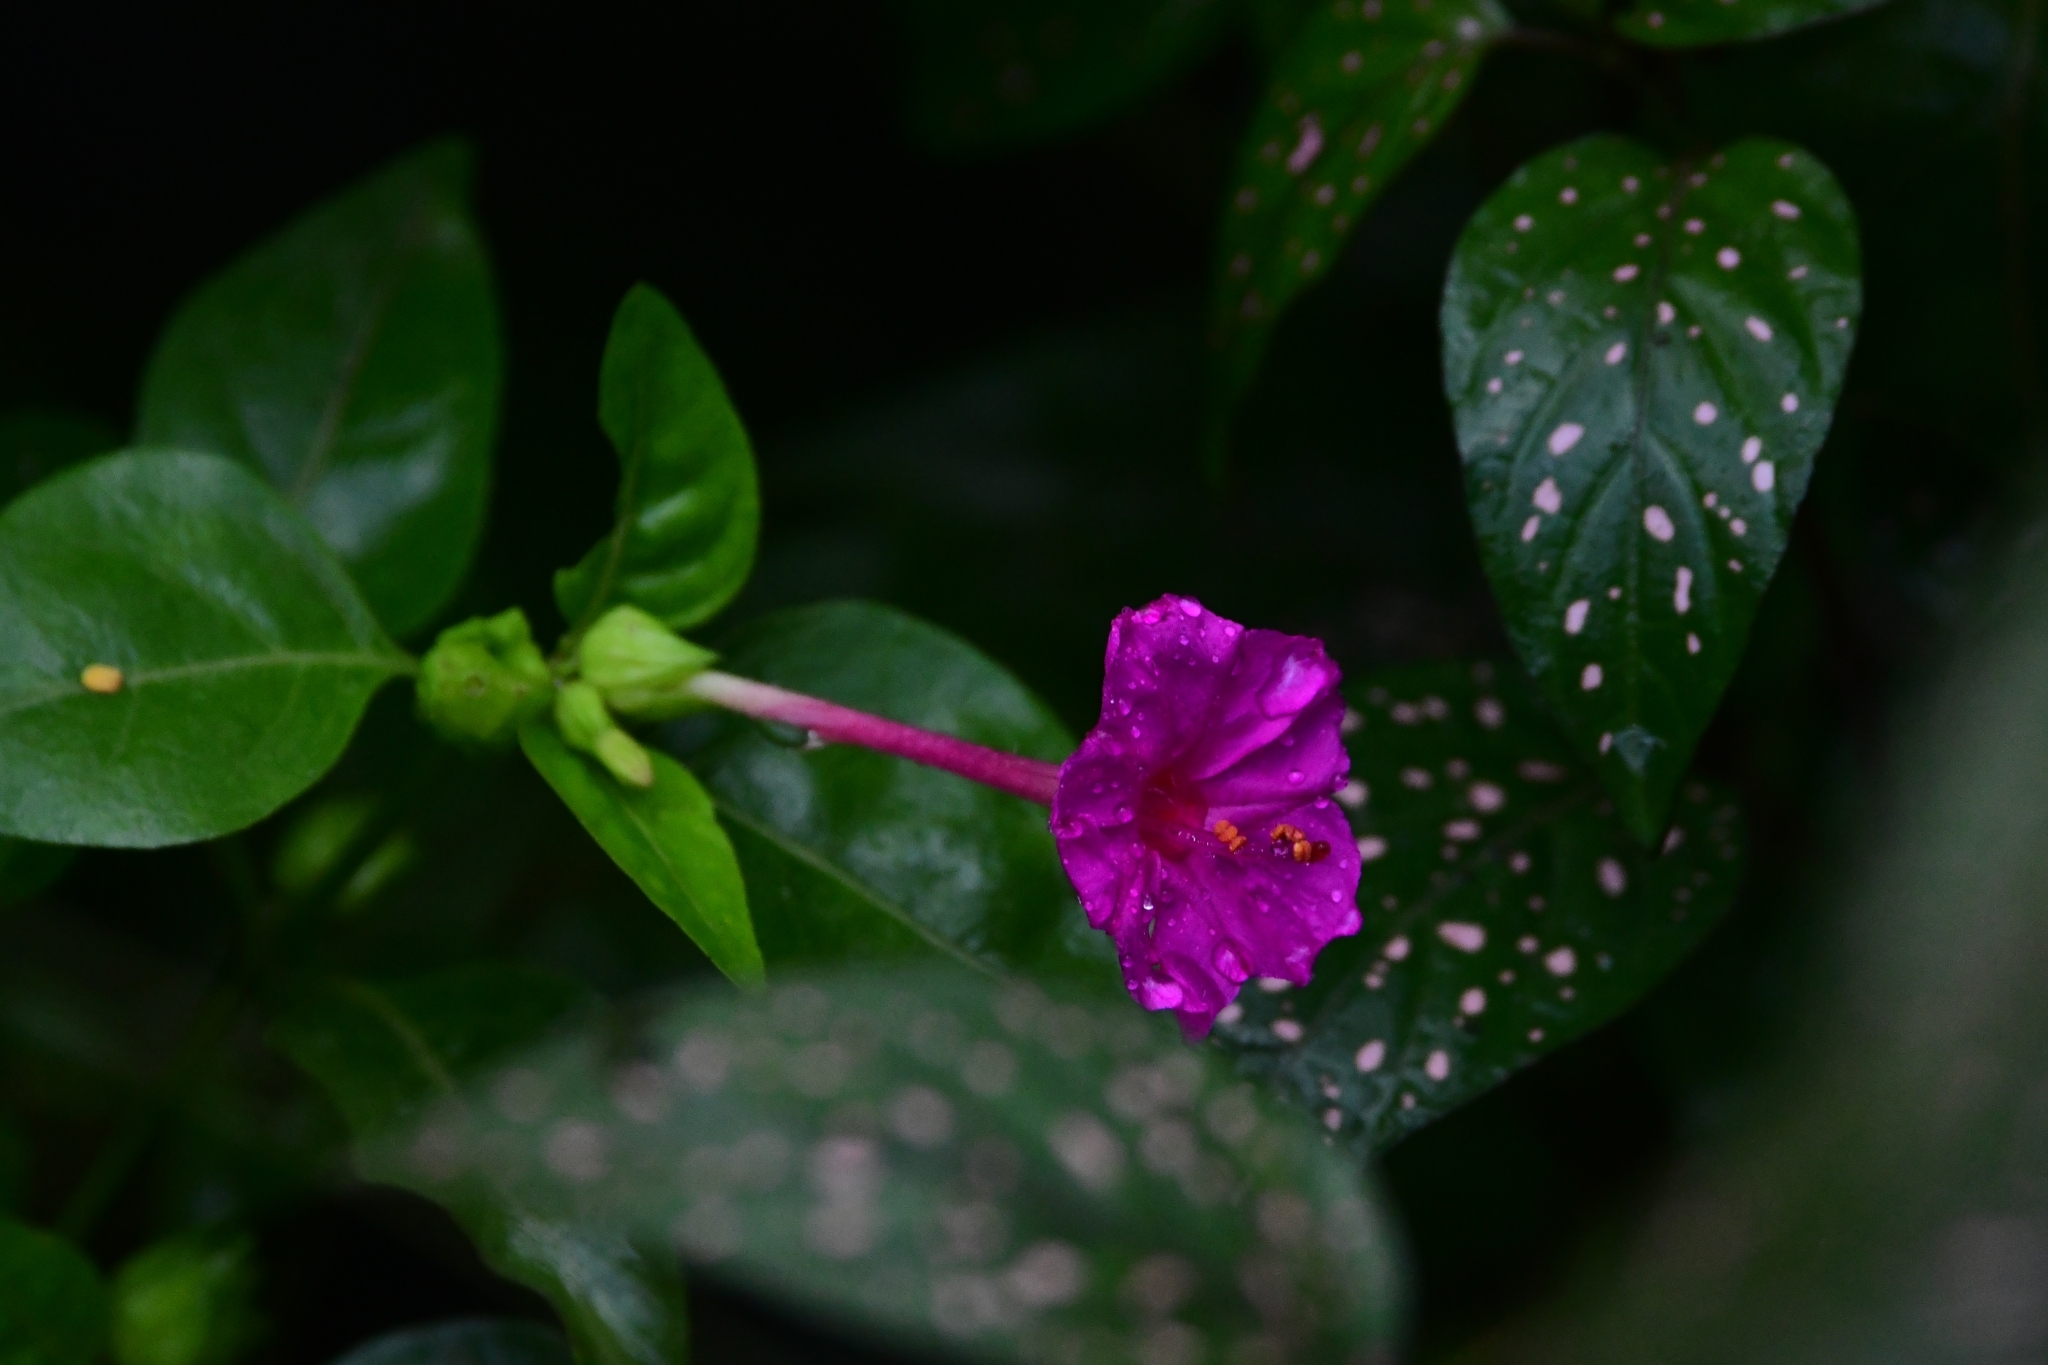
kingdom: Plantae
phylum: Tracheophyta
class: Magnoliopsida
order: Caryophyllales
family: Nyctaginaceae
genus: Mirabilis
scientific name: Mirabilis jalapa
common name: Marvel-of-peru
